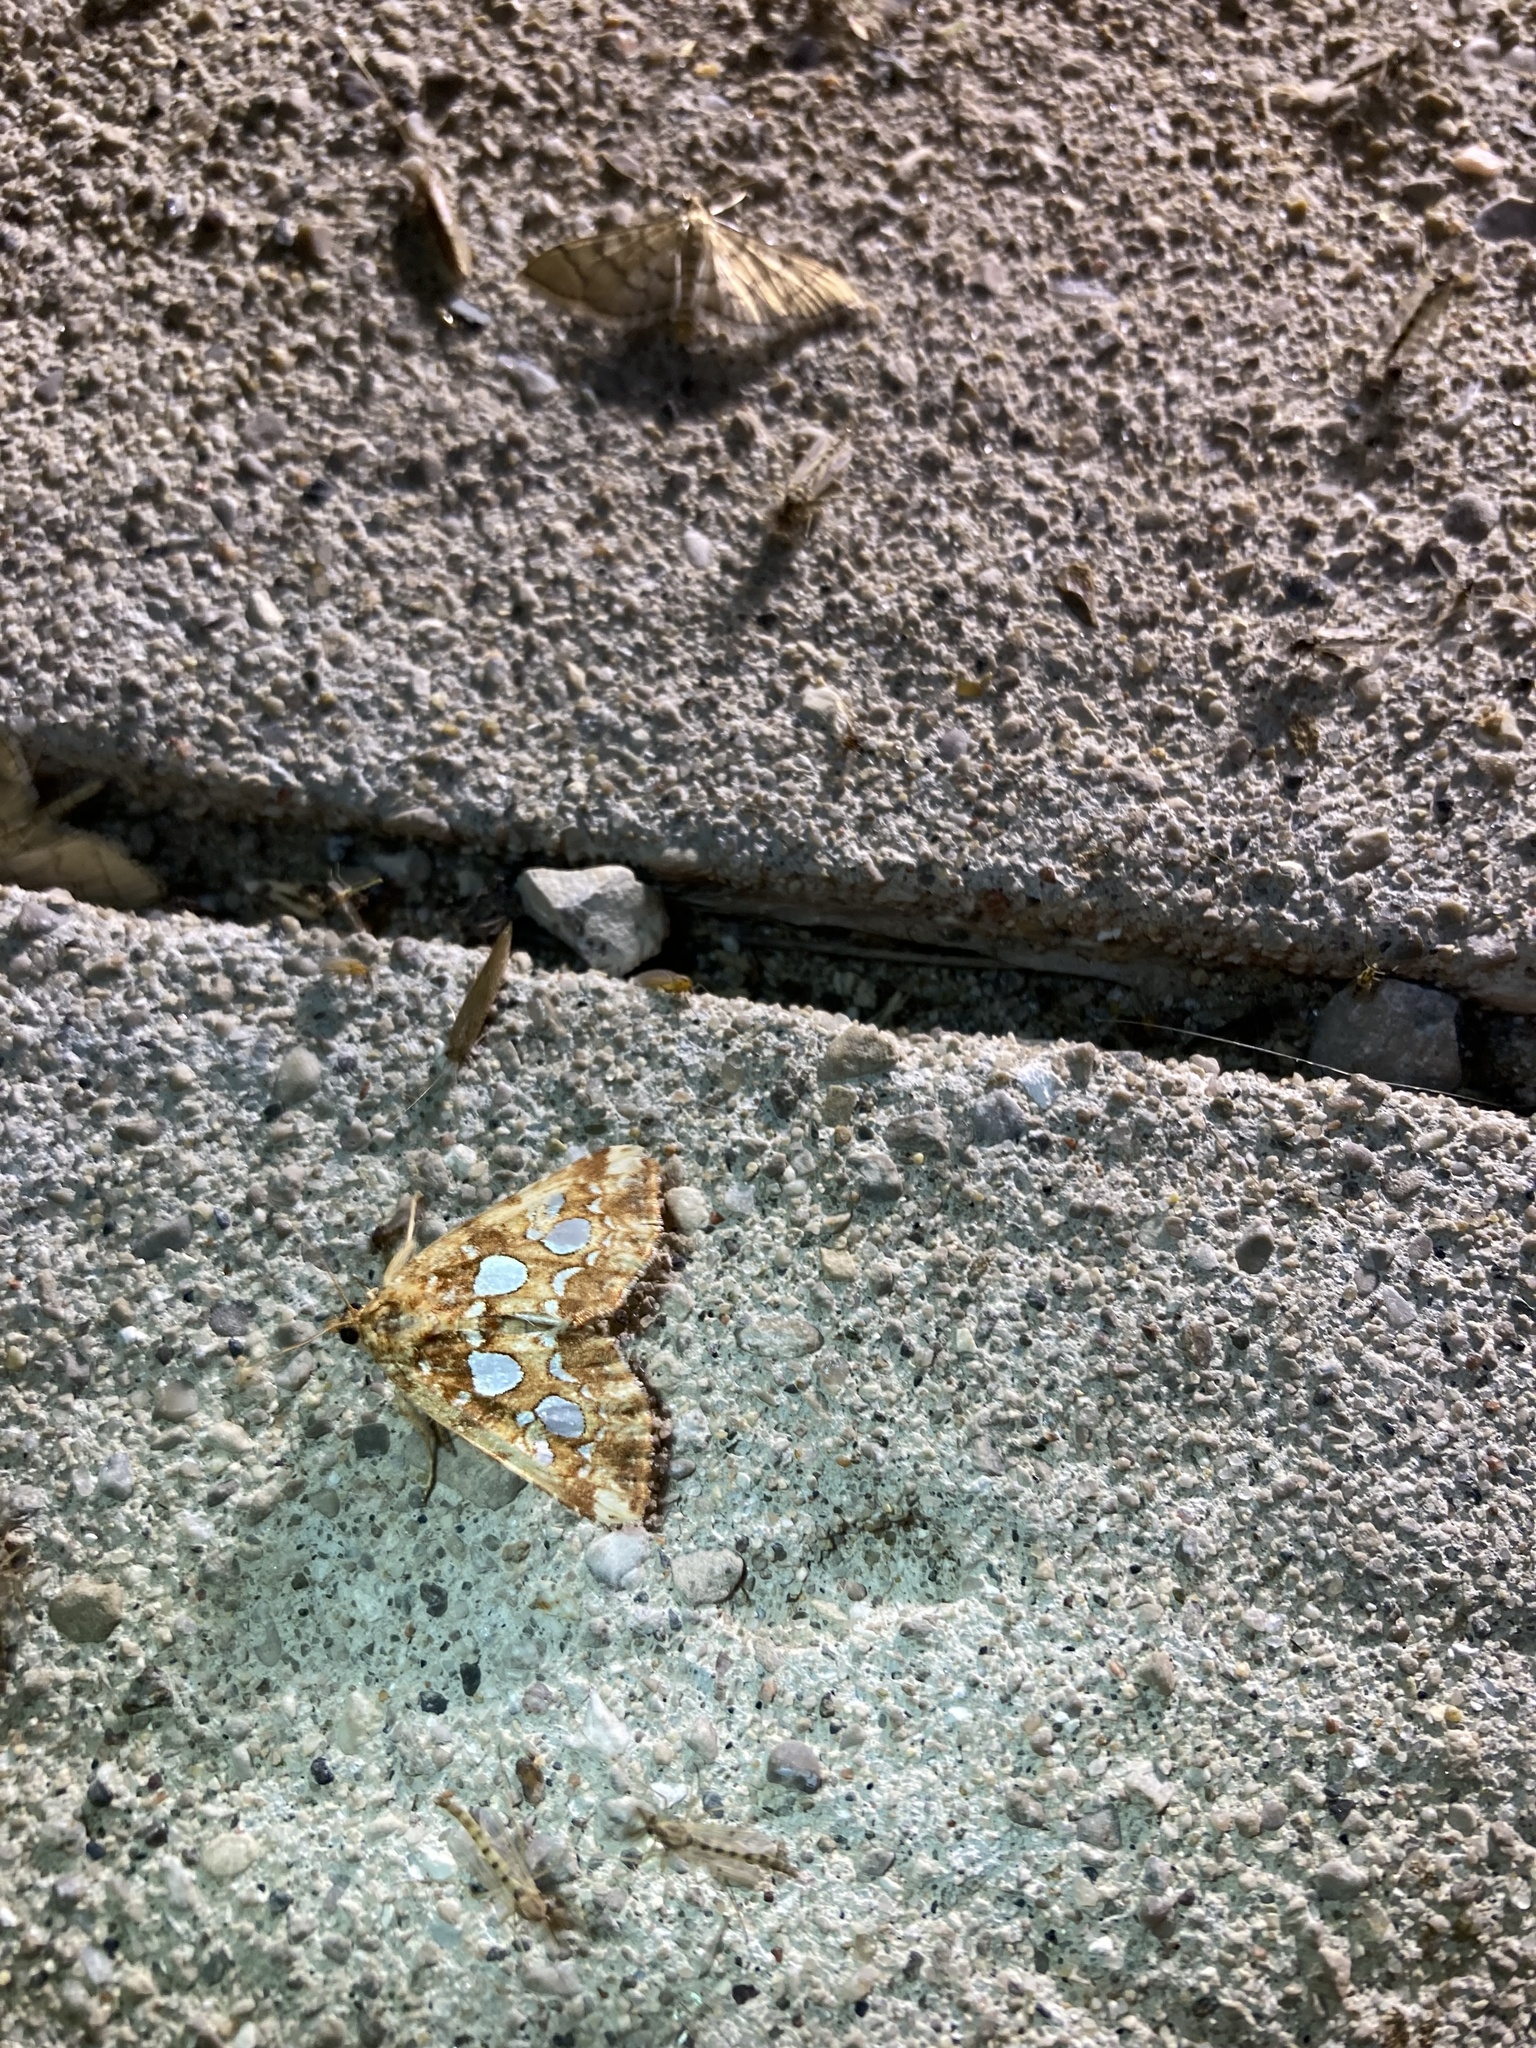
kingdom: Animalia
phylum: Arthropoda
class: Insecta
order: Lepidoptera
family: Noctuidae
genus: Callopistria
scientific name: Callopistria cordata
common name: Silver-spotted fern moth
